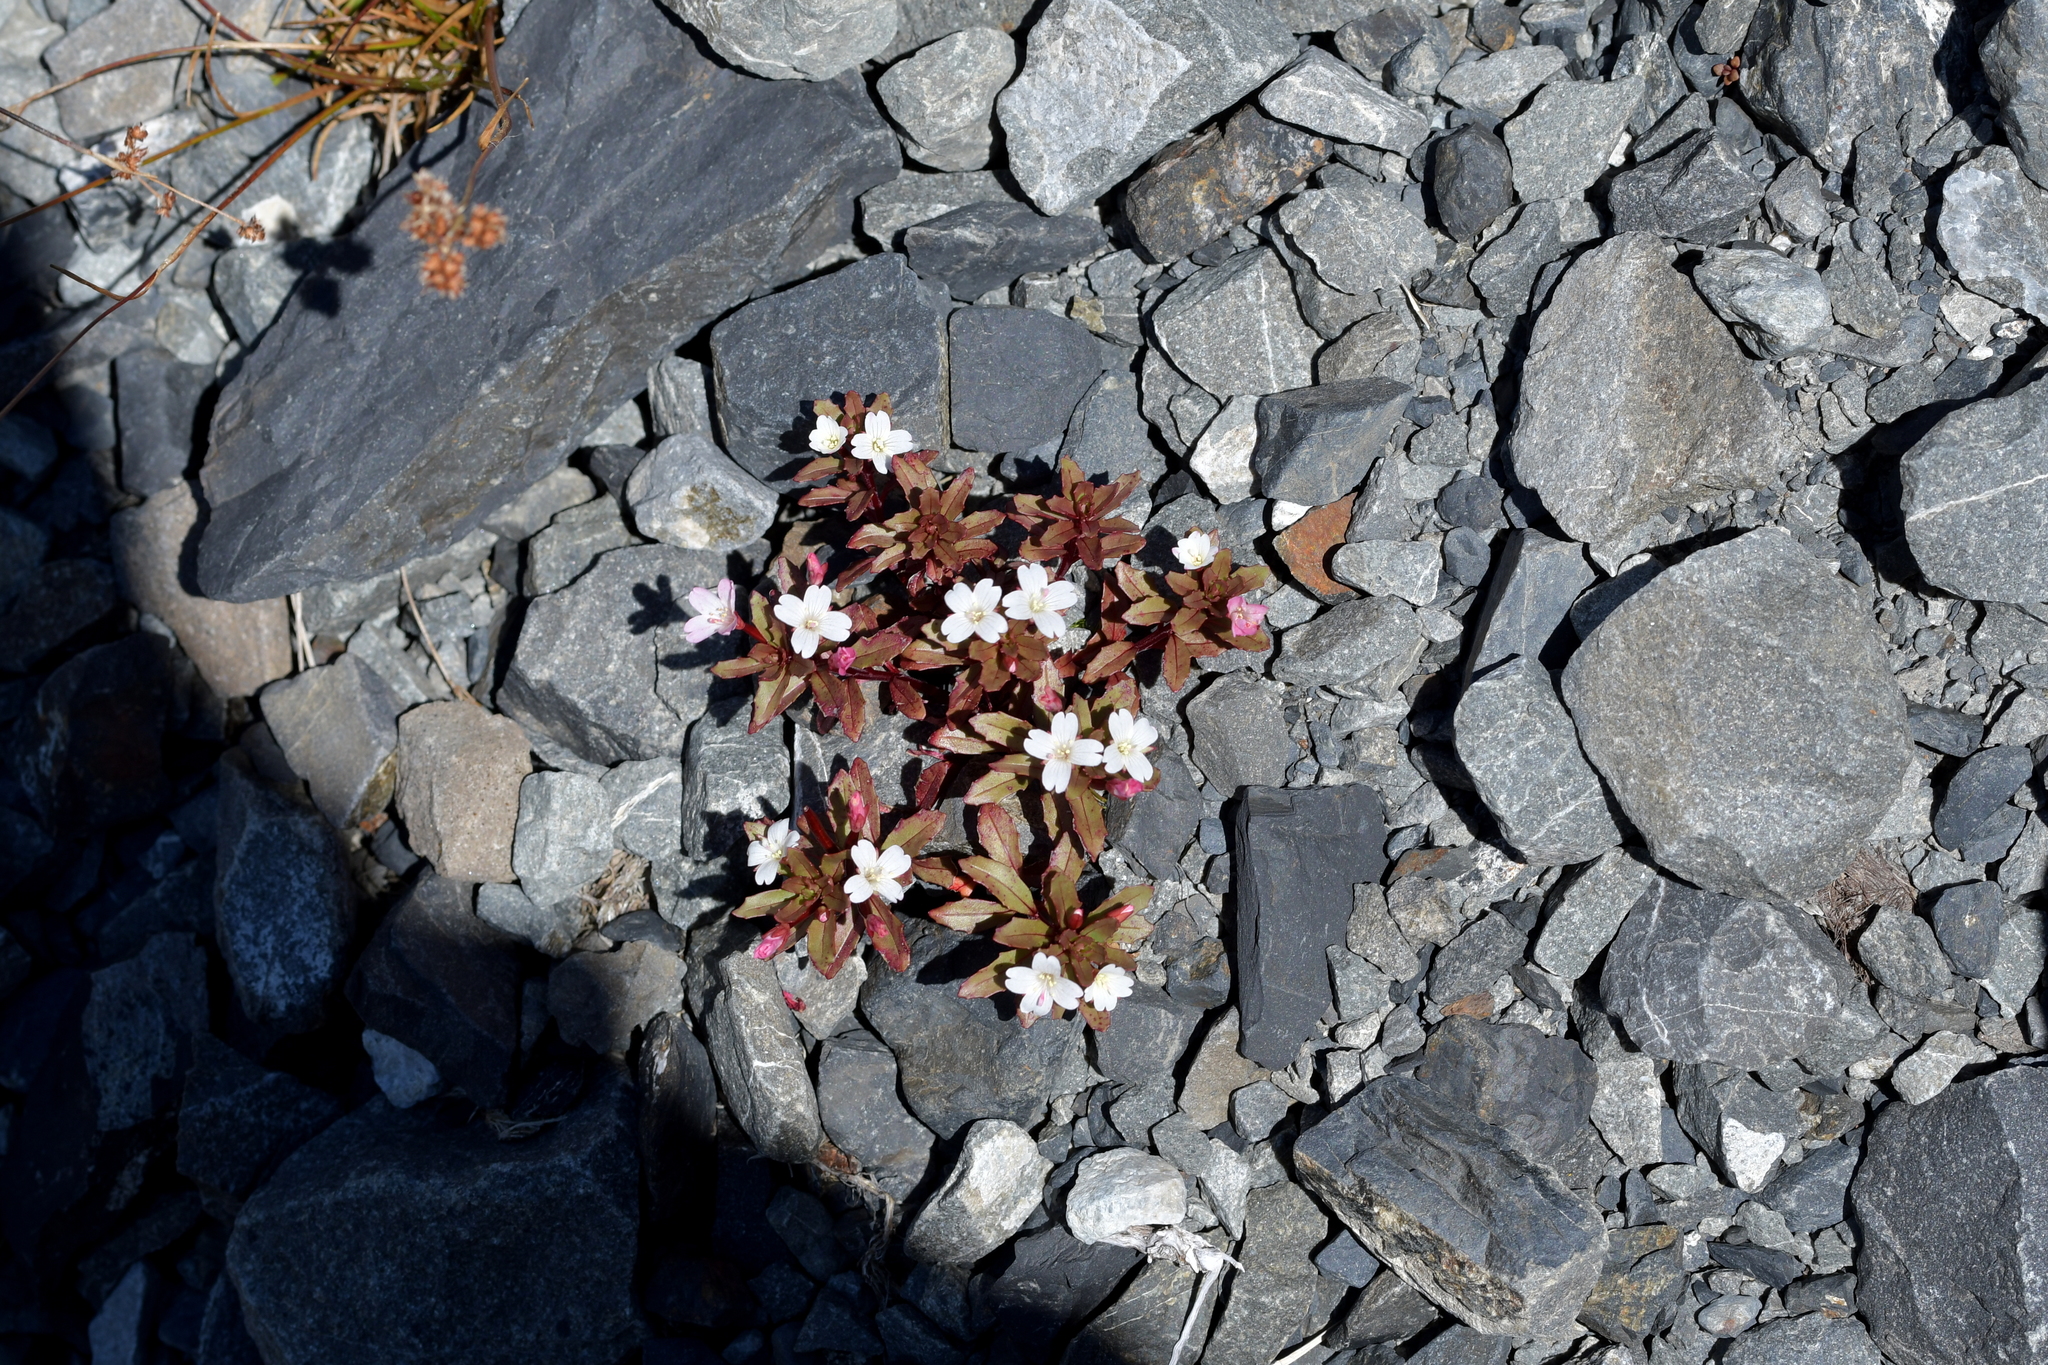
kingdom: Plantae
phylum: Tracheophyta
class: Magnoliopsida
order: Myrtales
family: Onagraceae
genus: Epilobium
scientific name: Epilobium pycnostachyum
